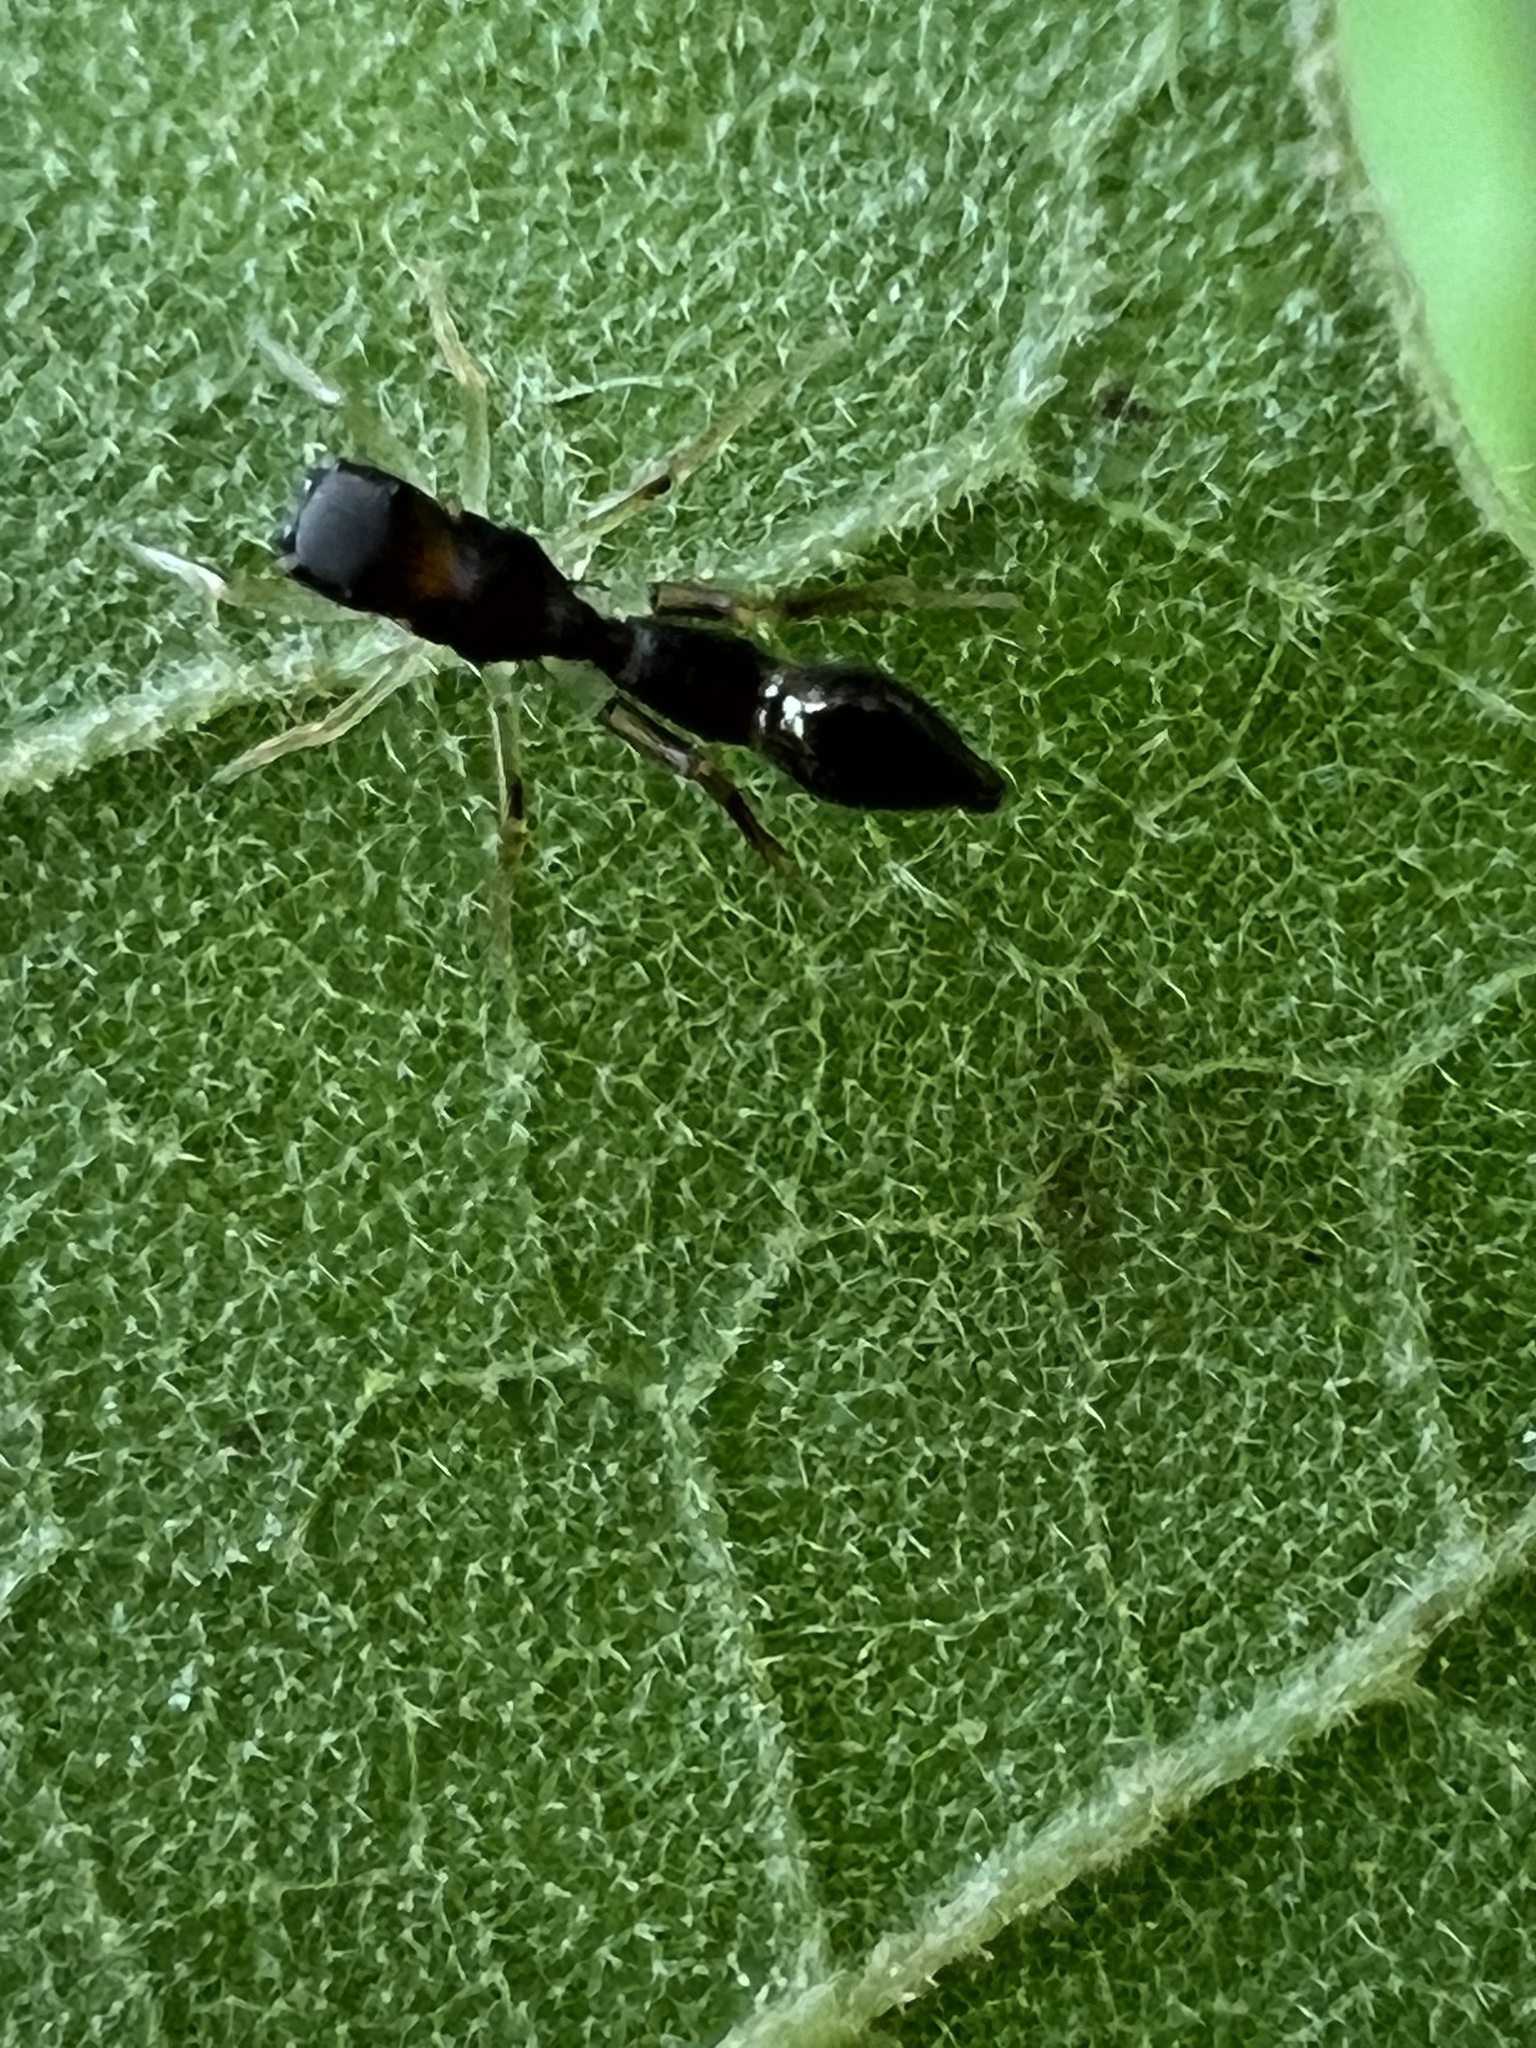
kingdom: Animalia
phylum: Arthropoda
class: Arachnida
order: Araneae
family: Salticidae
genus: Synemosyna
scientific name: Synemosyna formica
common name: Slender ant-mimic jumping spider
